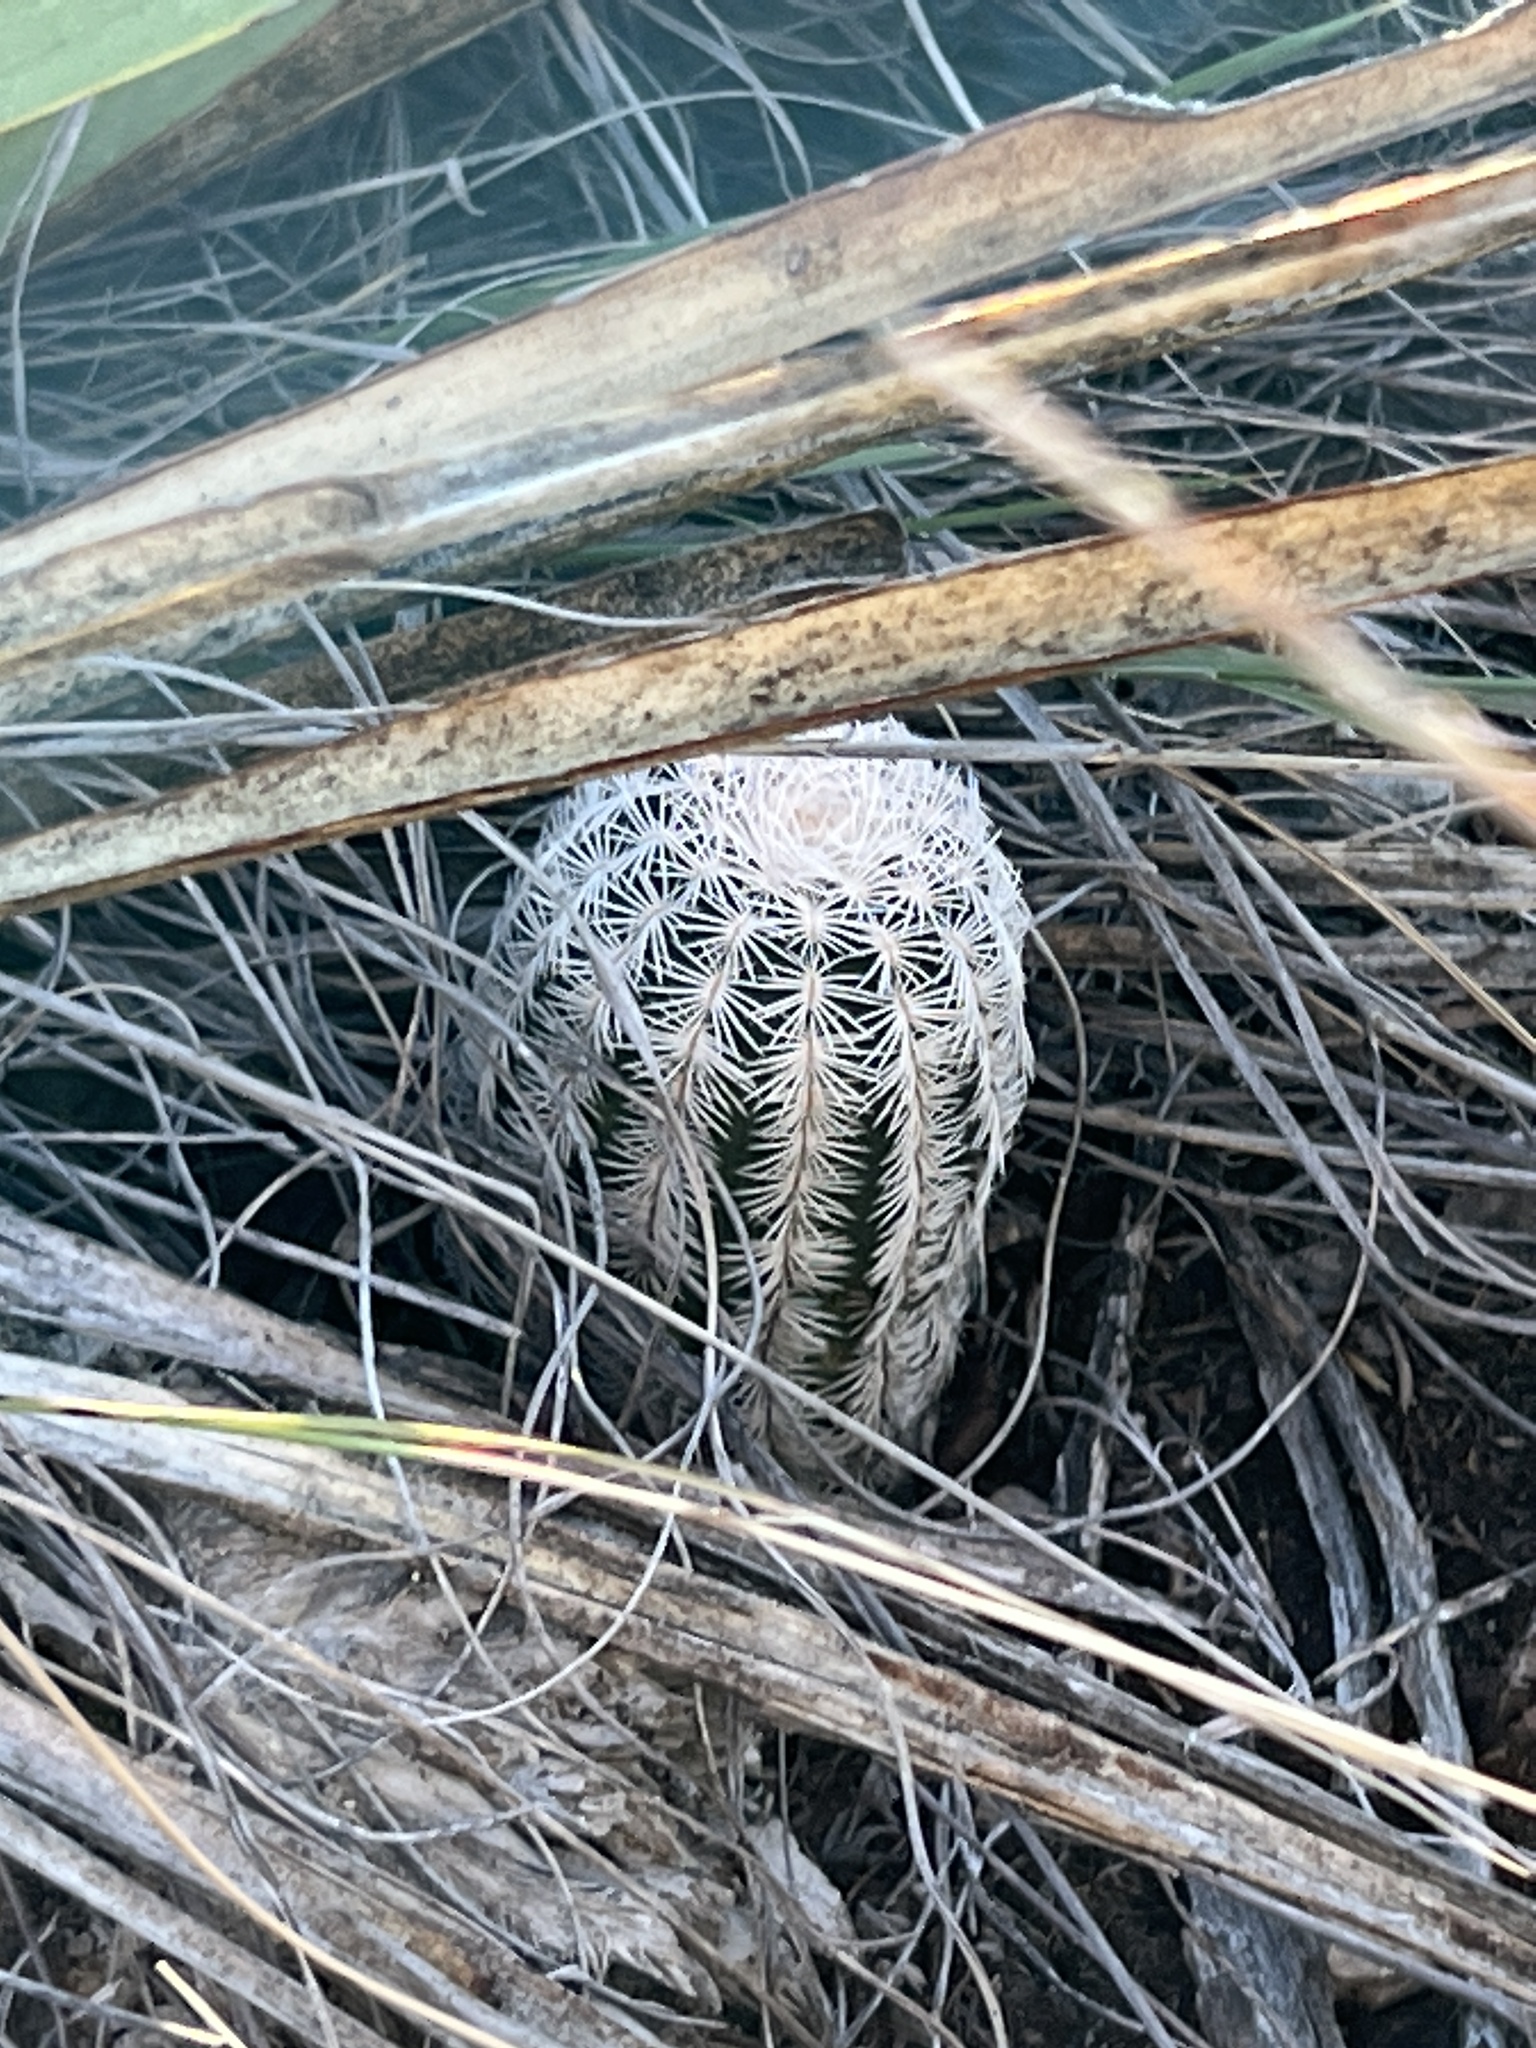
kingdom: Plantae
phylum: Tracheophyta
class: Magnoliopsida
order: Caryophyllales
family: Cactaceae
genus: Echinocereus
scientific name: Echinocereus reichenbachii
